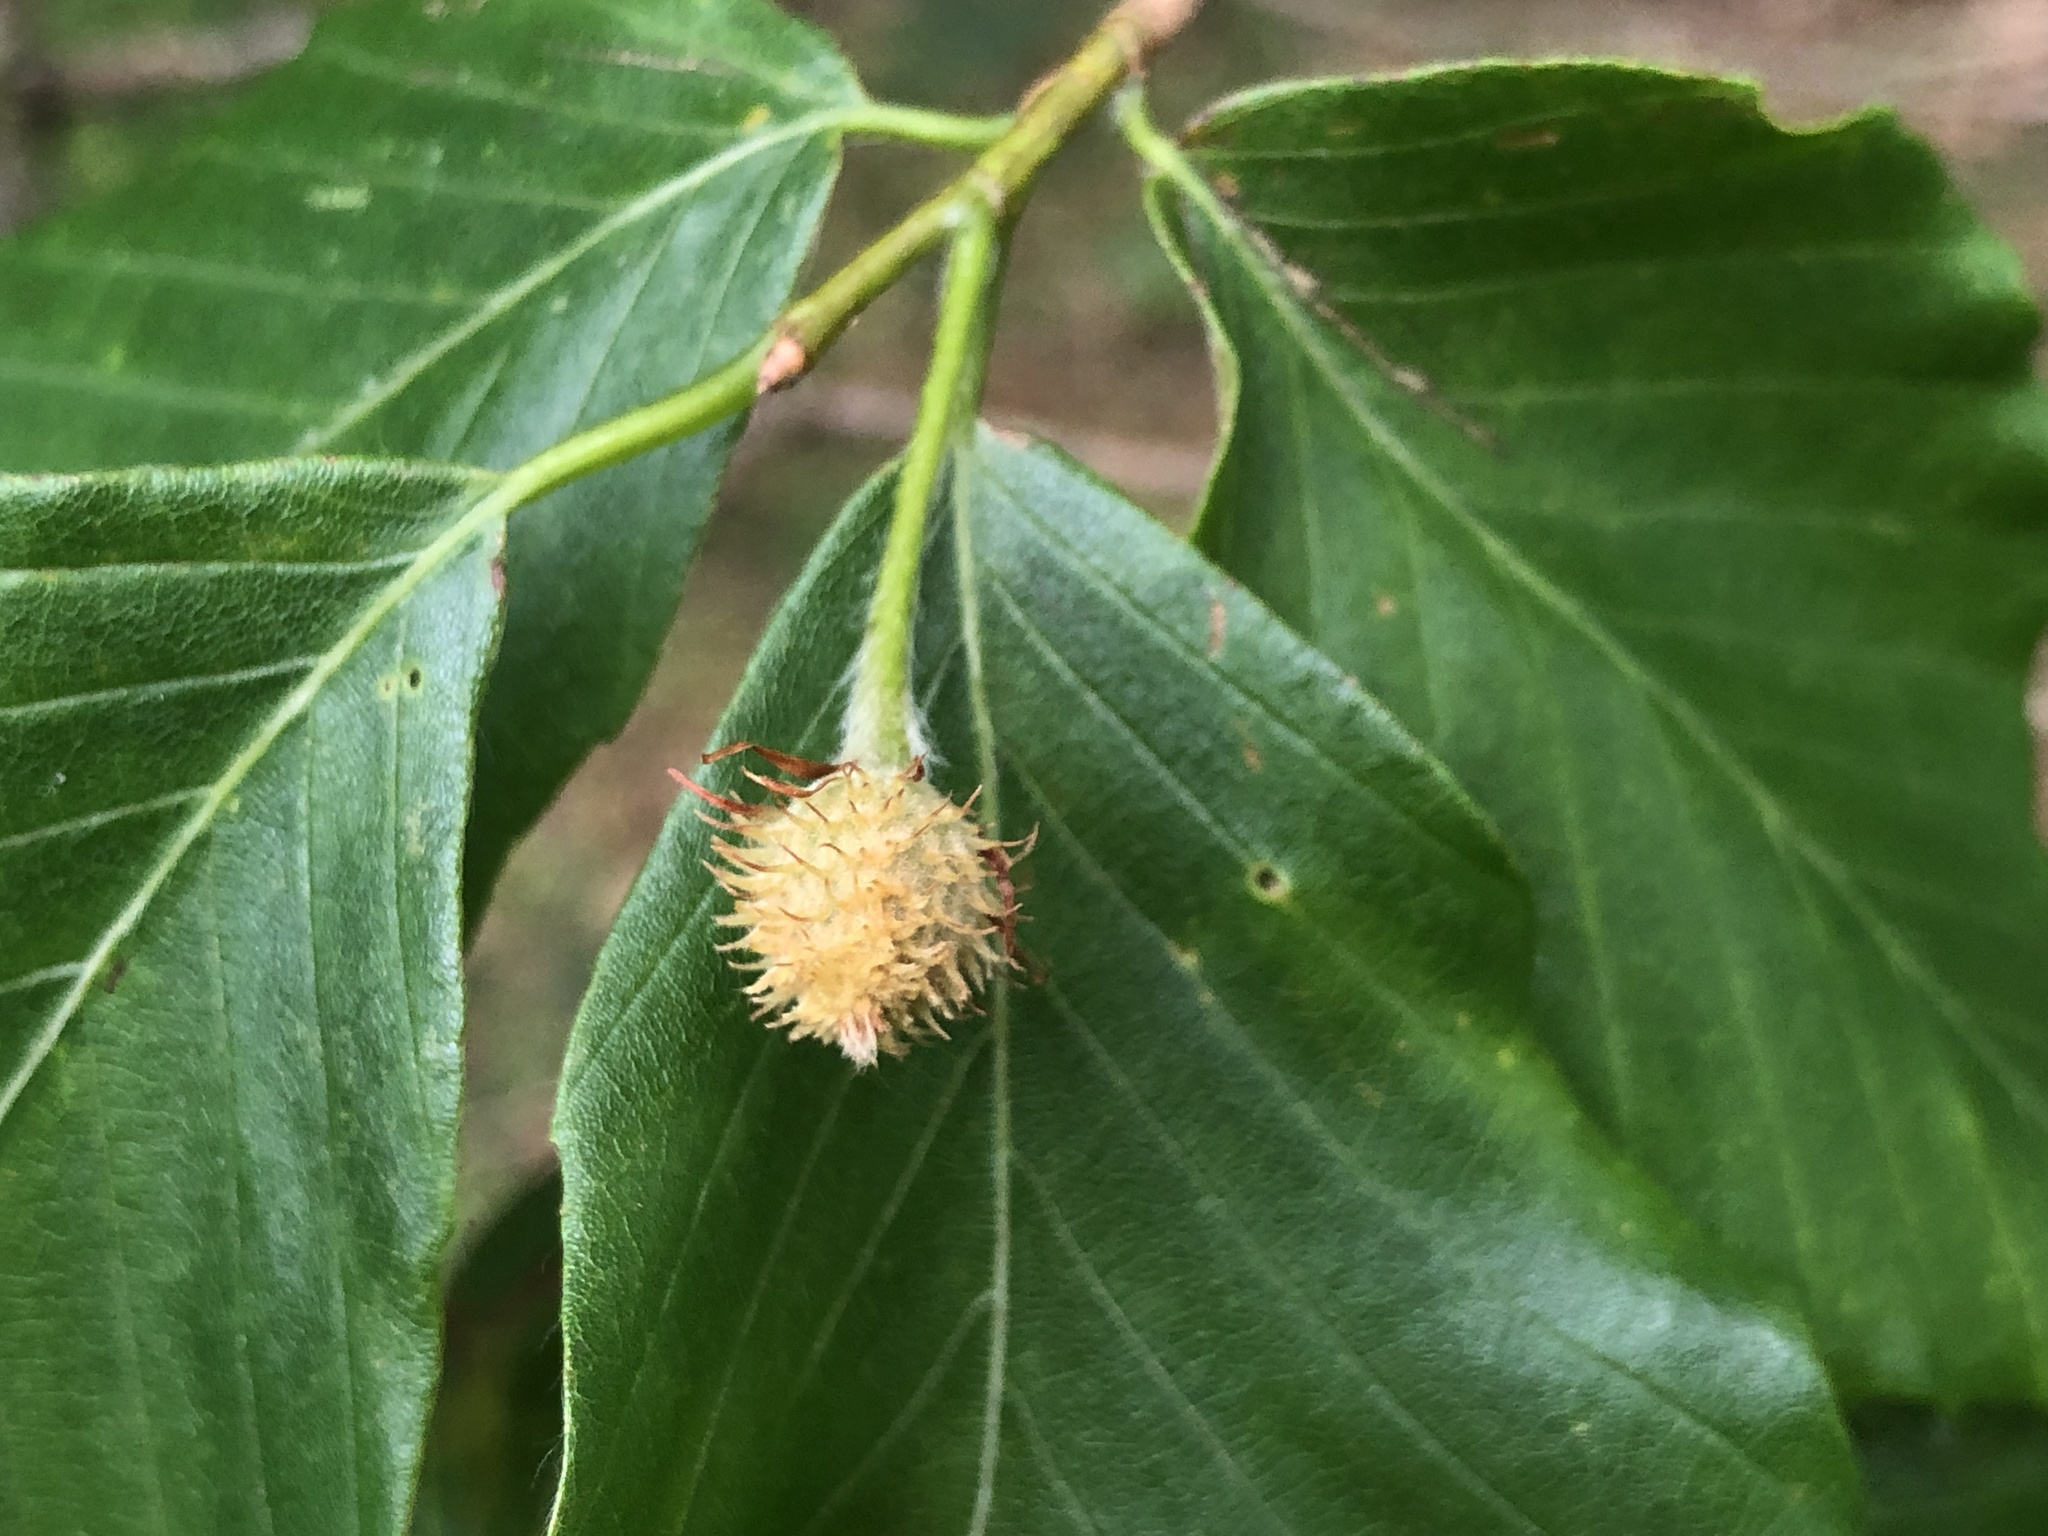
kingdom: Plantae
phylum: Tracheophyta
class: Magnoliopsida
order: Fagales
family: Fagaceae
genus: Fagus
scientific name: Fagus grandifolia
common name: American beech
